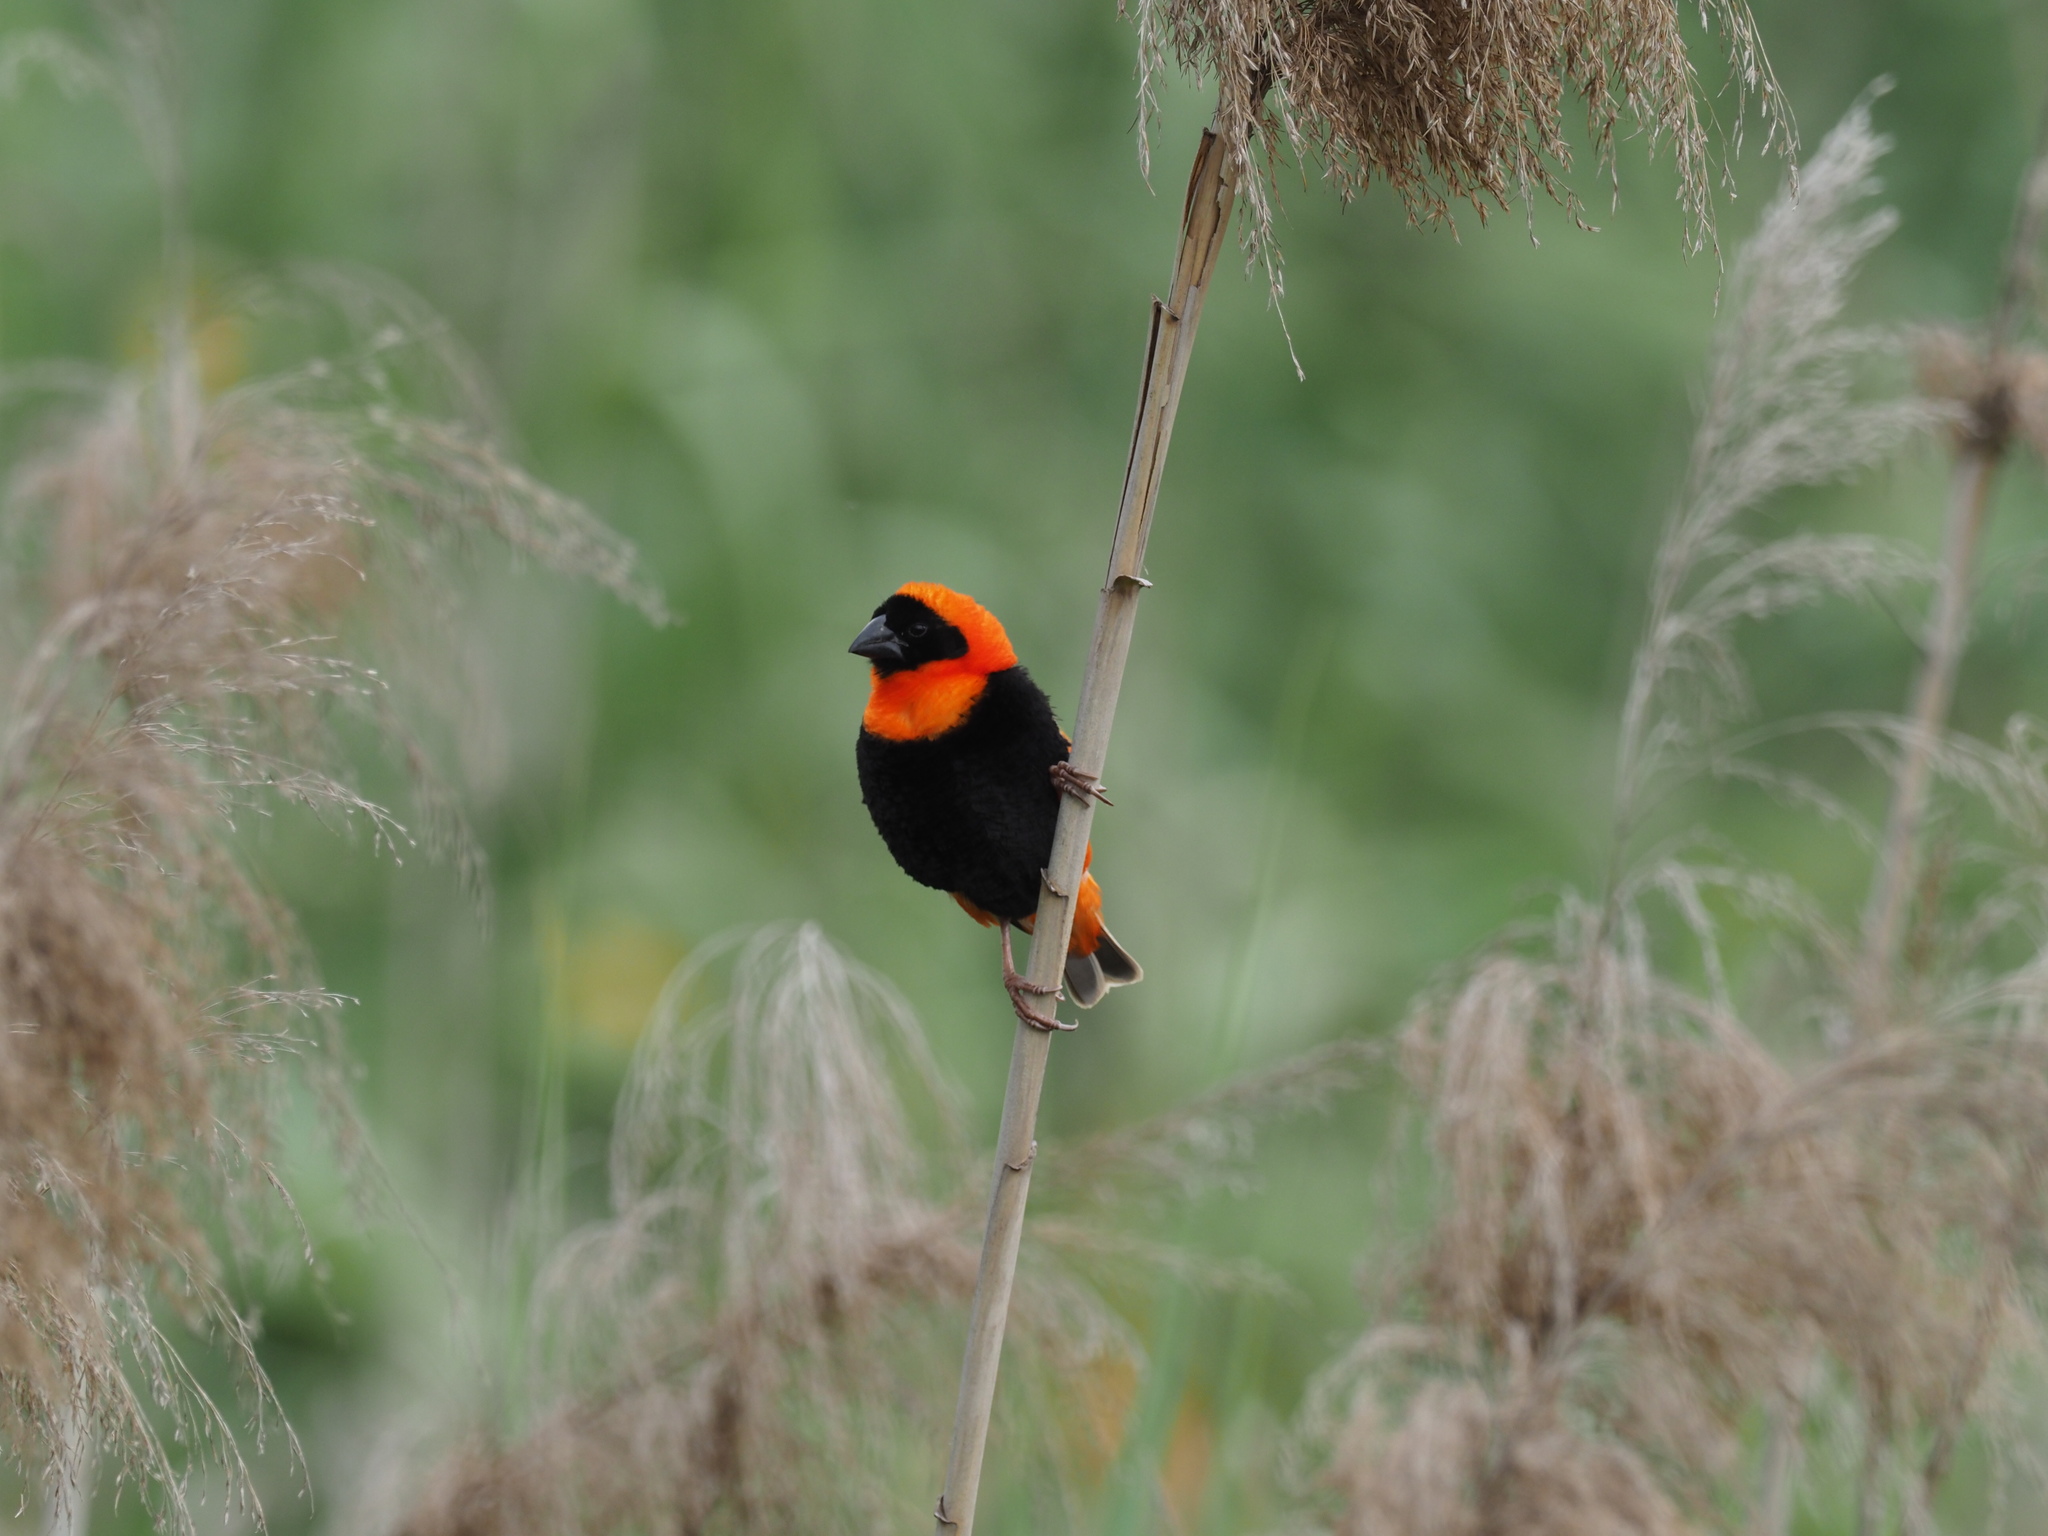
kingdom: Animalia
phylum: Chordata
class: Aves
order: Passeriformes
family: Ploceidae
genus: Euplectes
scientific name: Euplectes orix
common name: Southern red bishop
